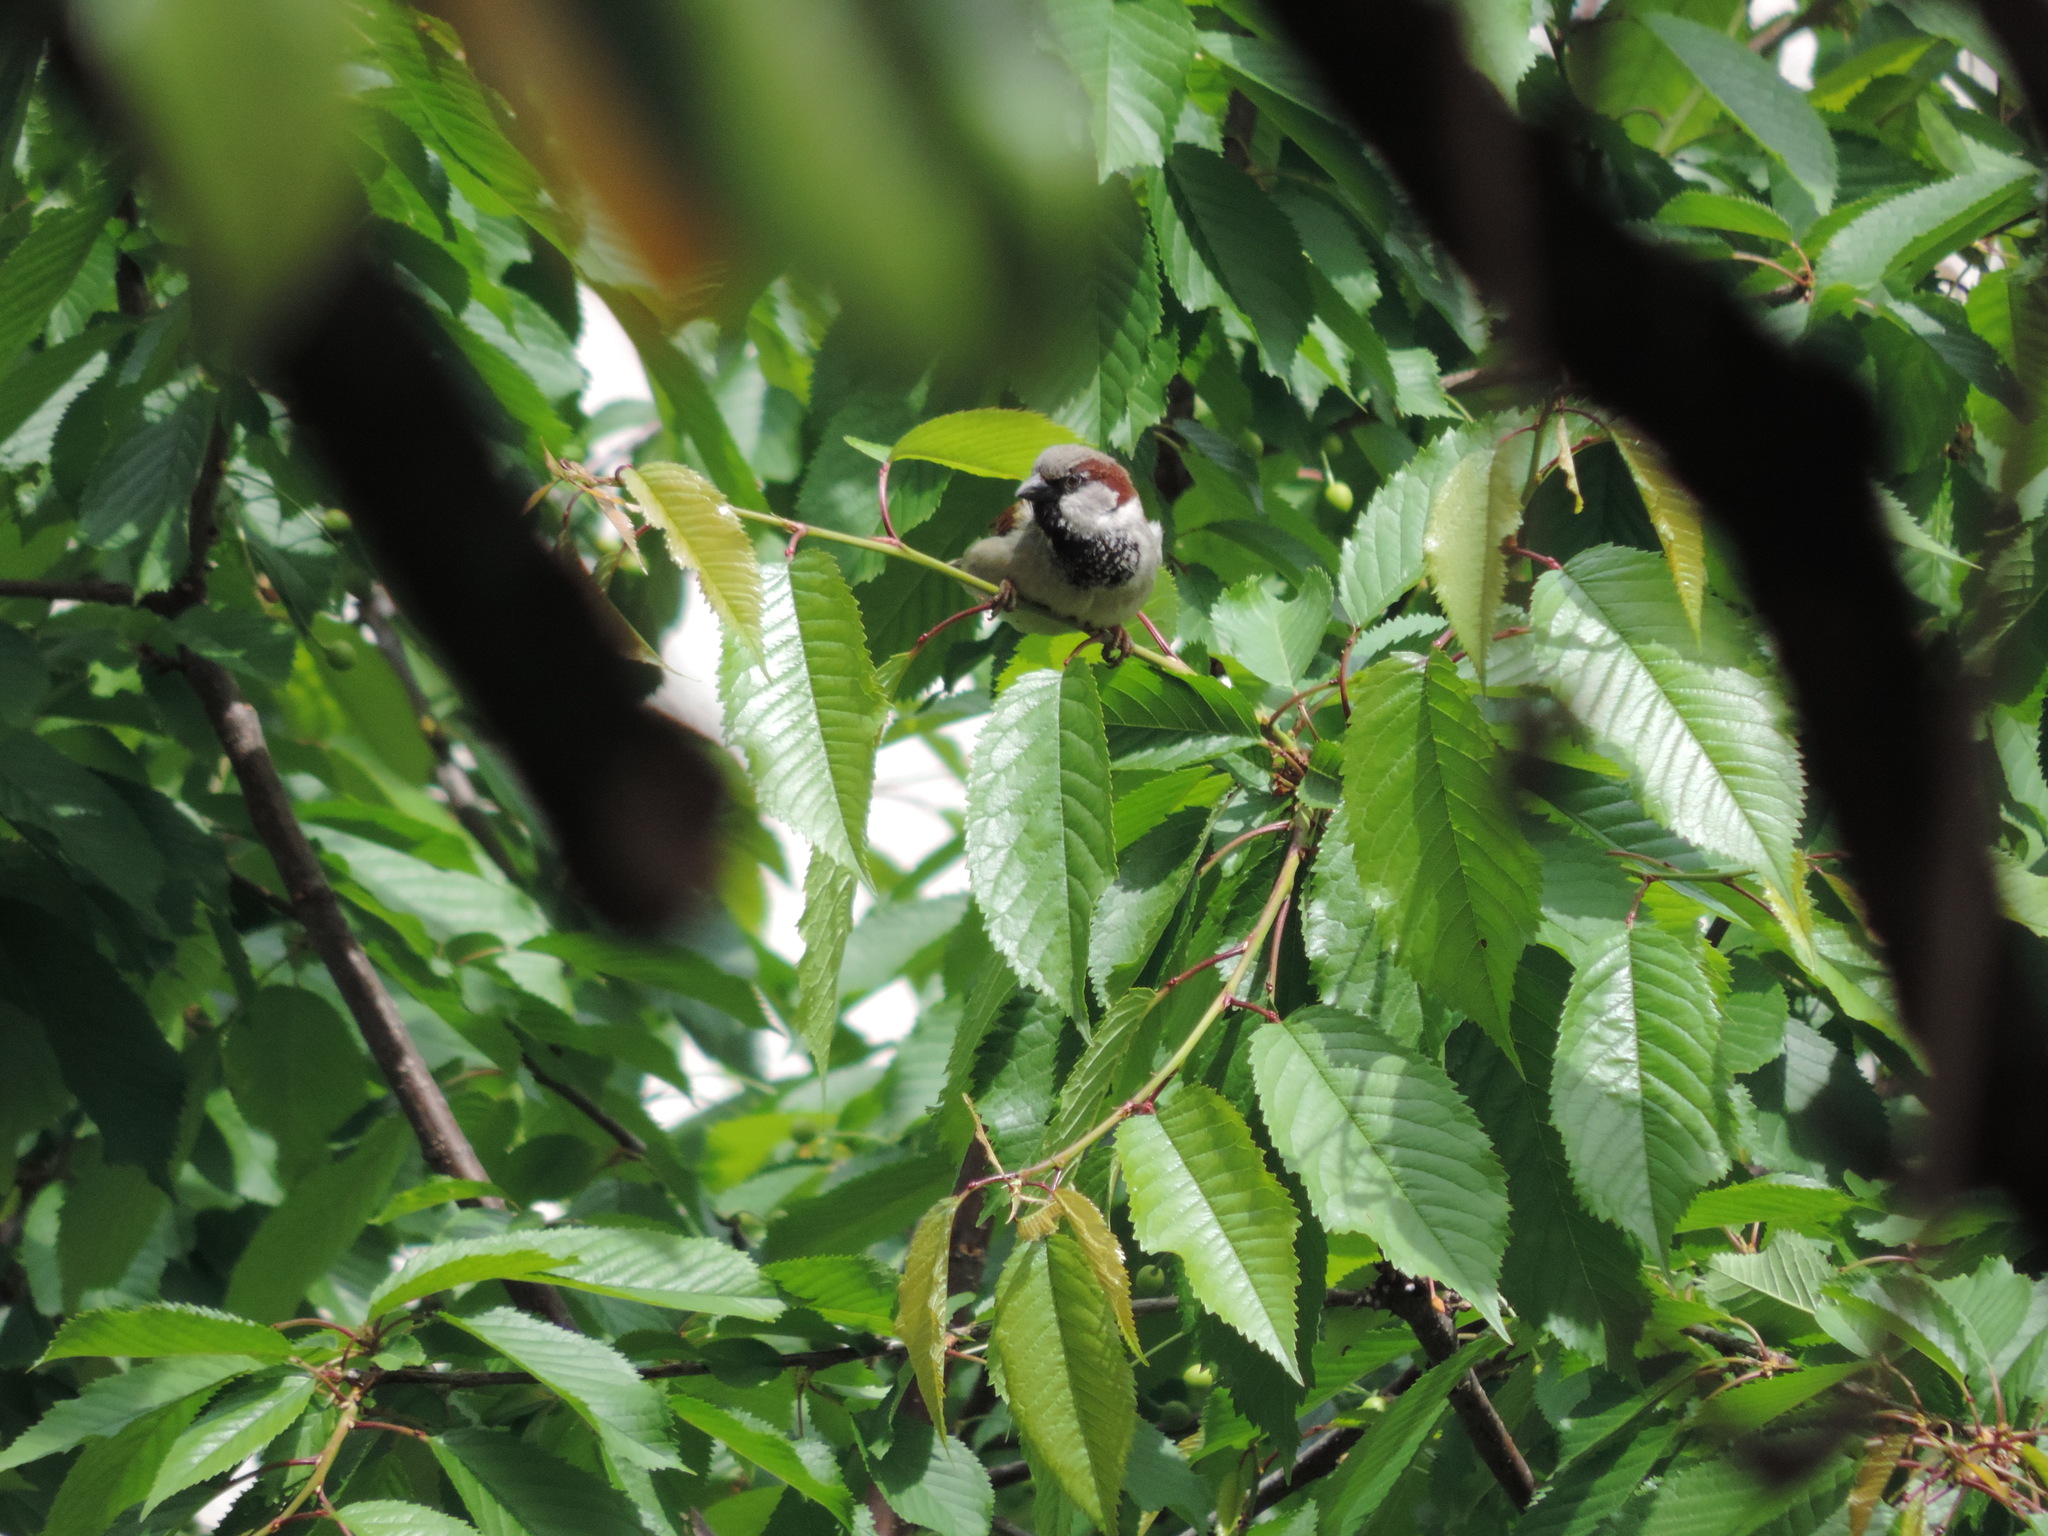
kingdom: Animalia
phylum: Chordata
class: Aves
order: Passeriformes
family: Passeridae
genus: Passer
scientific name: Passer domesticus
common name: House sparrow
